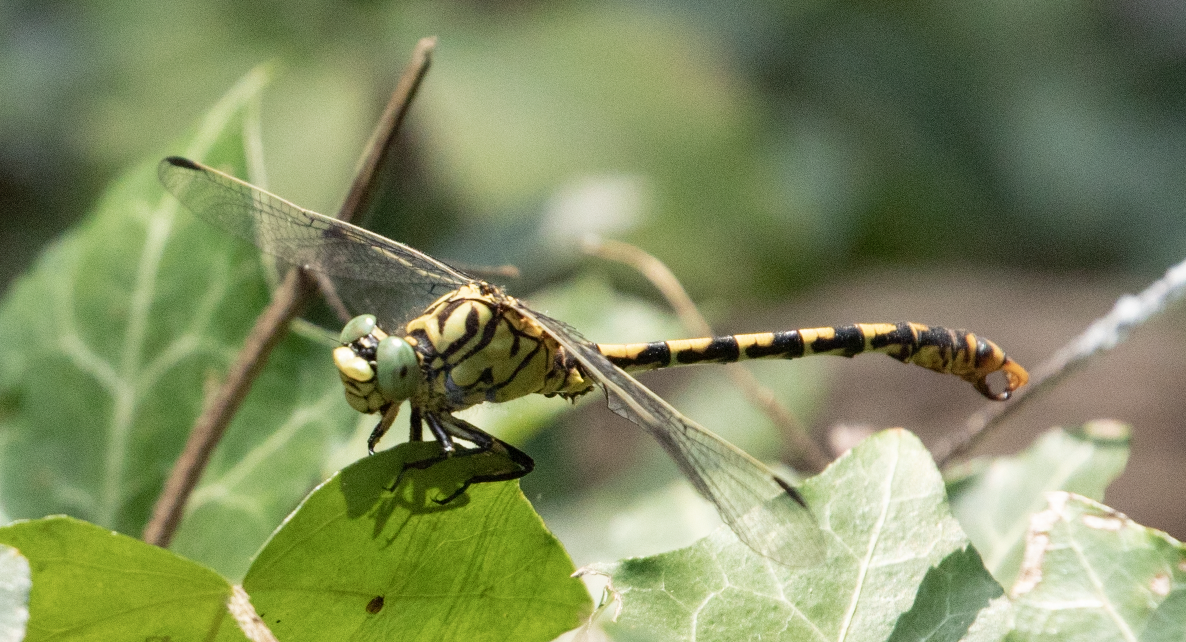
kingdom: Animalia
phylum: Arthropoda
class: Insecta
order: Odonata
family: Gomphidae
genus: Onychogomphus
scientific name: Onychogomphus forcipatus
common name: Small pincertail
